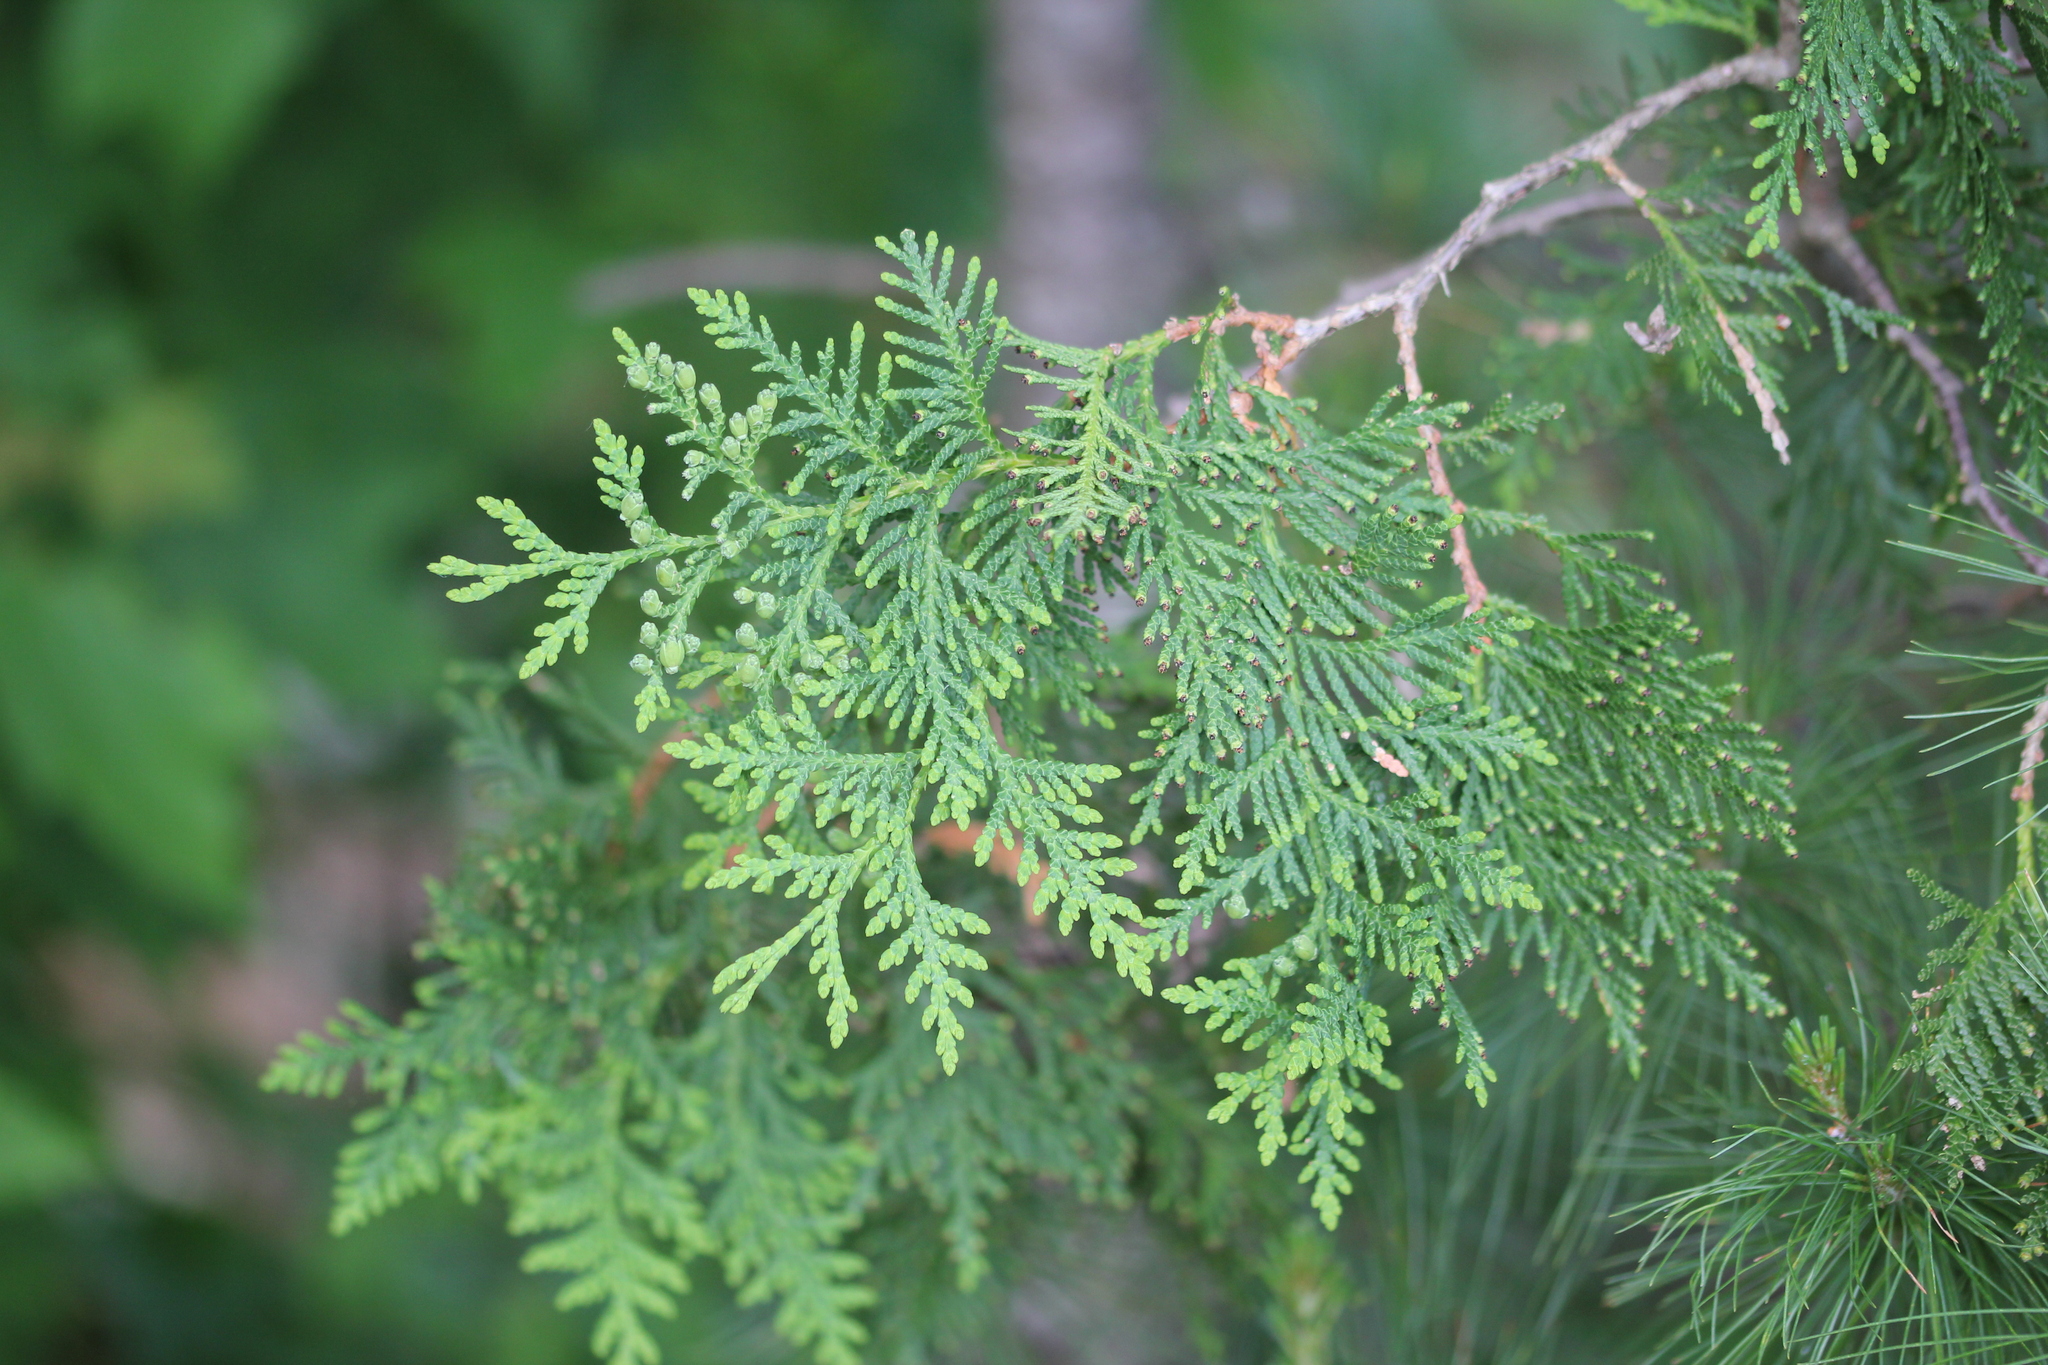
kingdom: Plantae
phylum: Tracheophyta
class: Pinopsida
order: Pinales
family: Cupressaceae
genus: Thuja
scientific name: Thuja occidentalis
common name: Northern white-cedar
